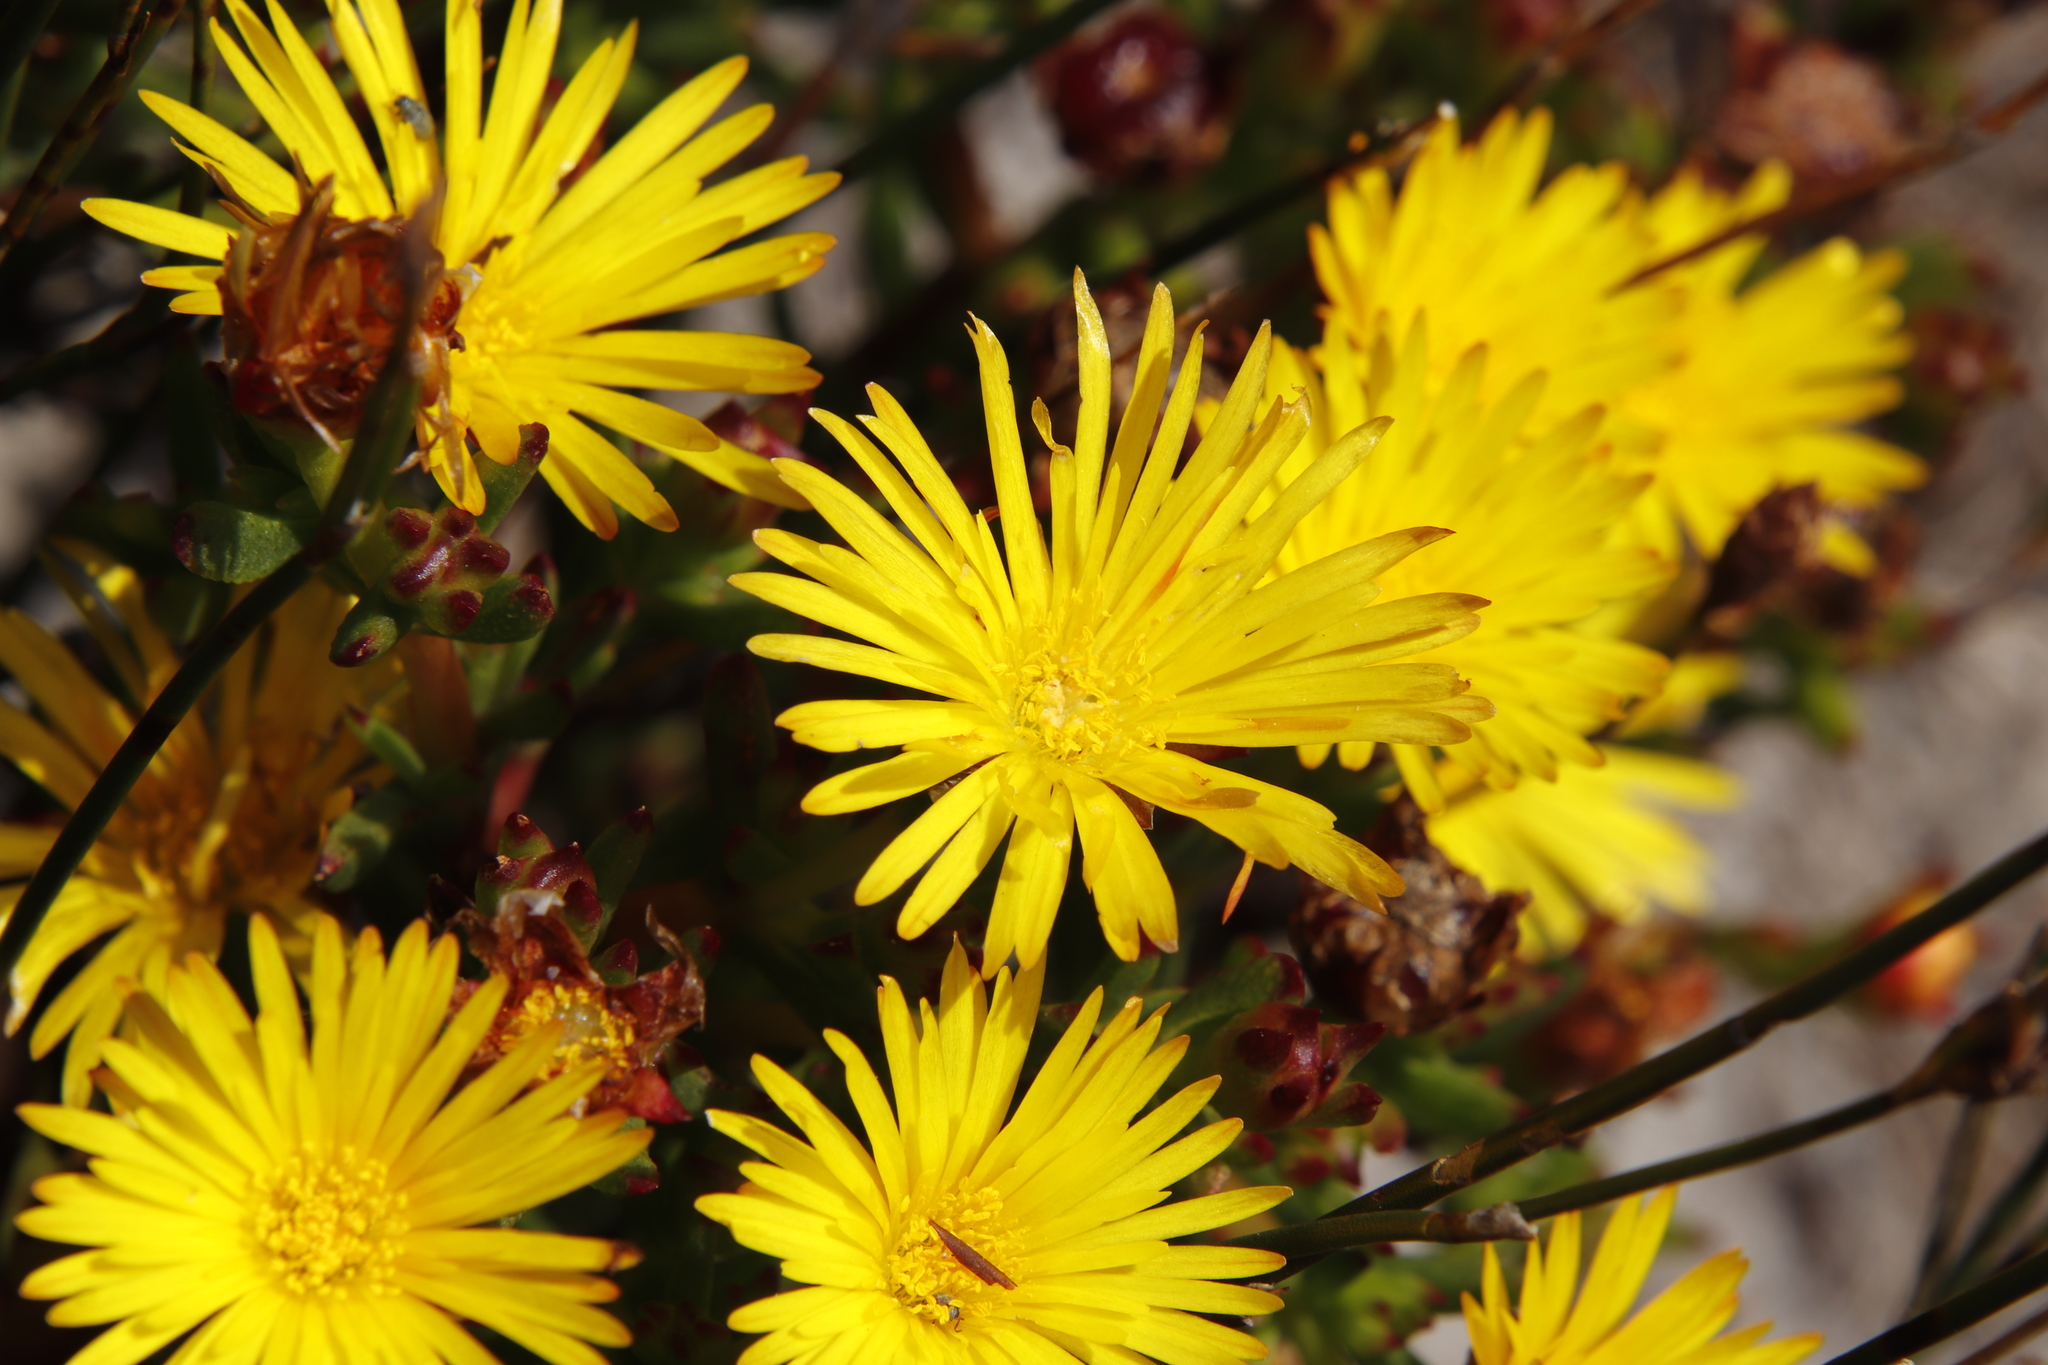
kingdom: Plantae
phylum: Tracheophyta
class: Magnoliopsida
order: Caryophyllales
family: Aizoaceae
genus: Lampranthus
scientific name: Lampranthus promontorii
